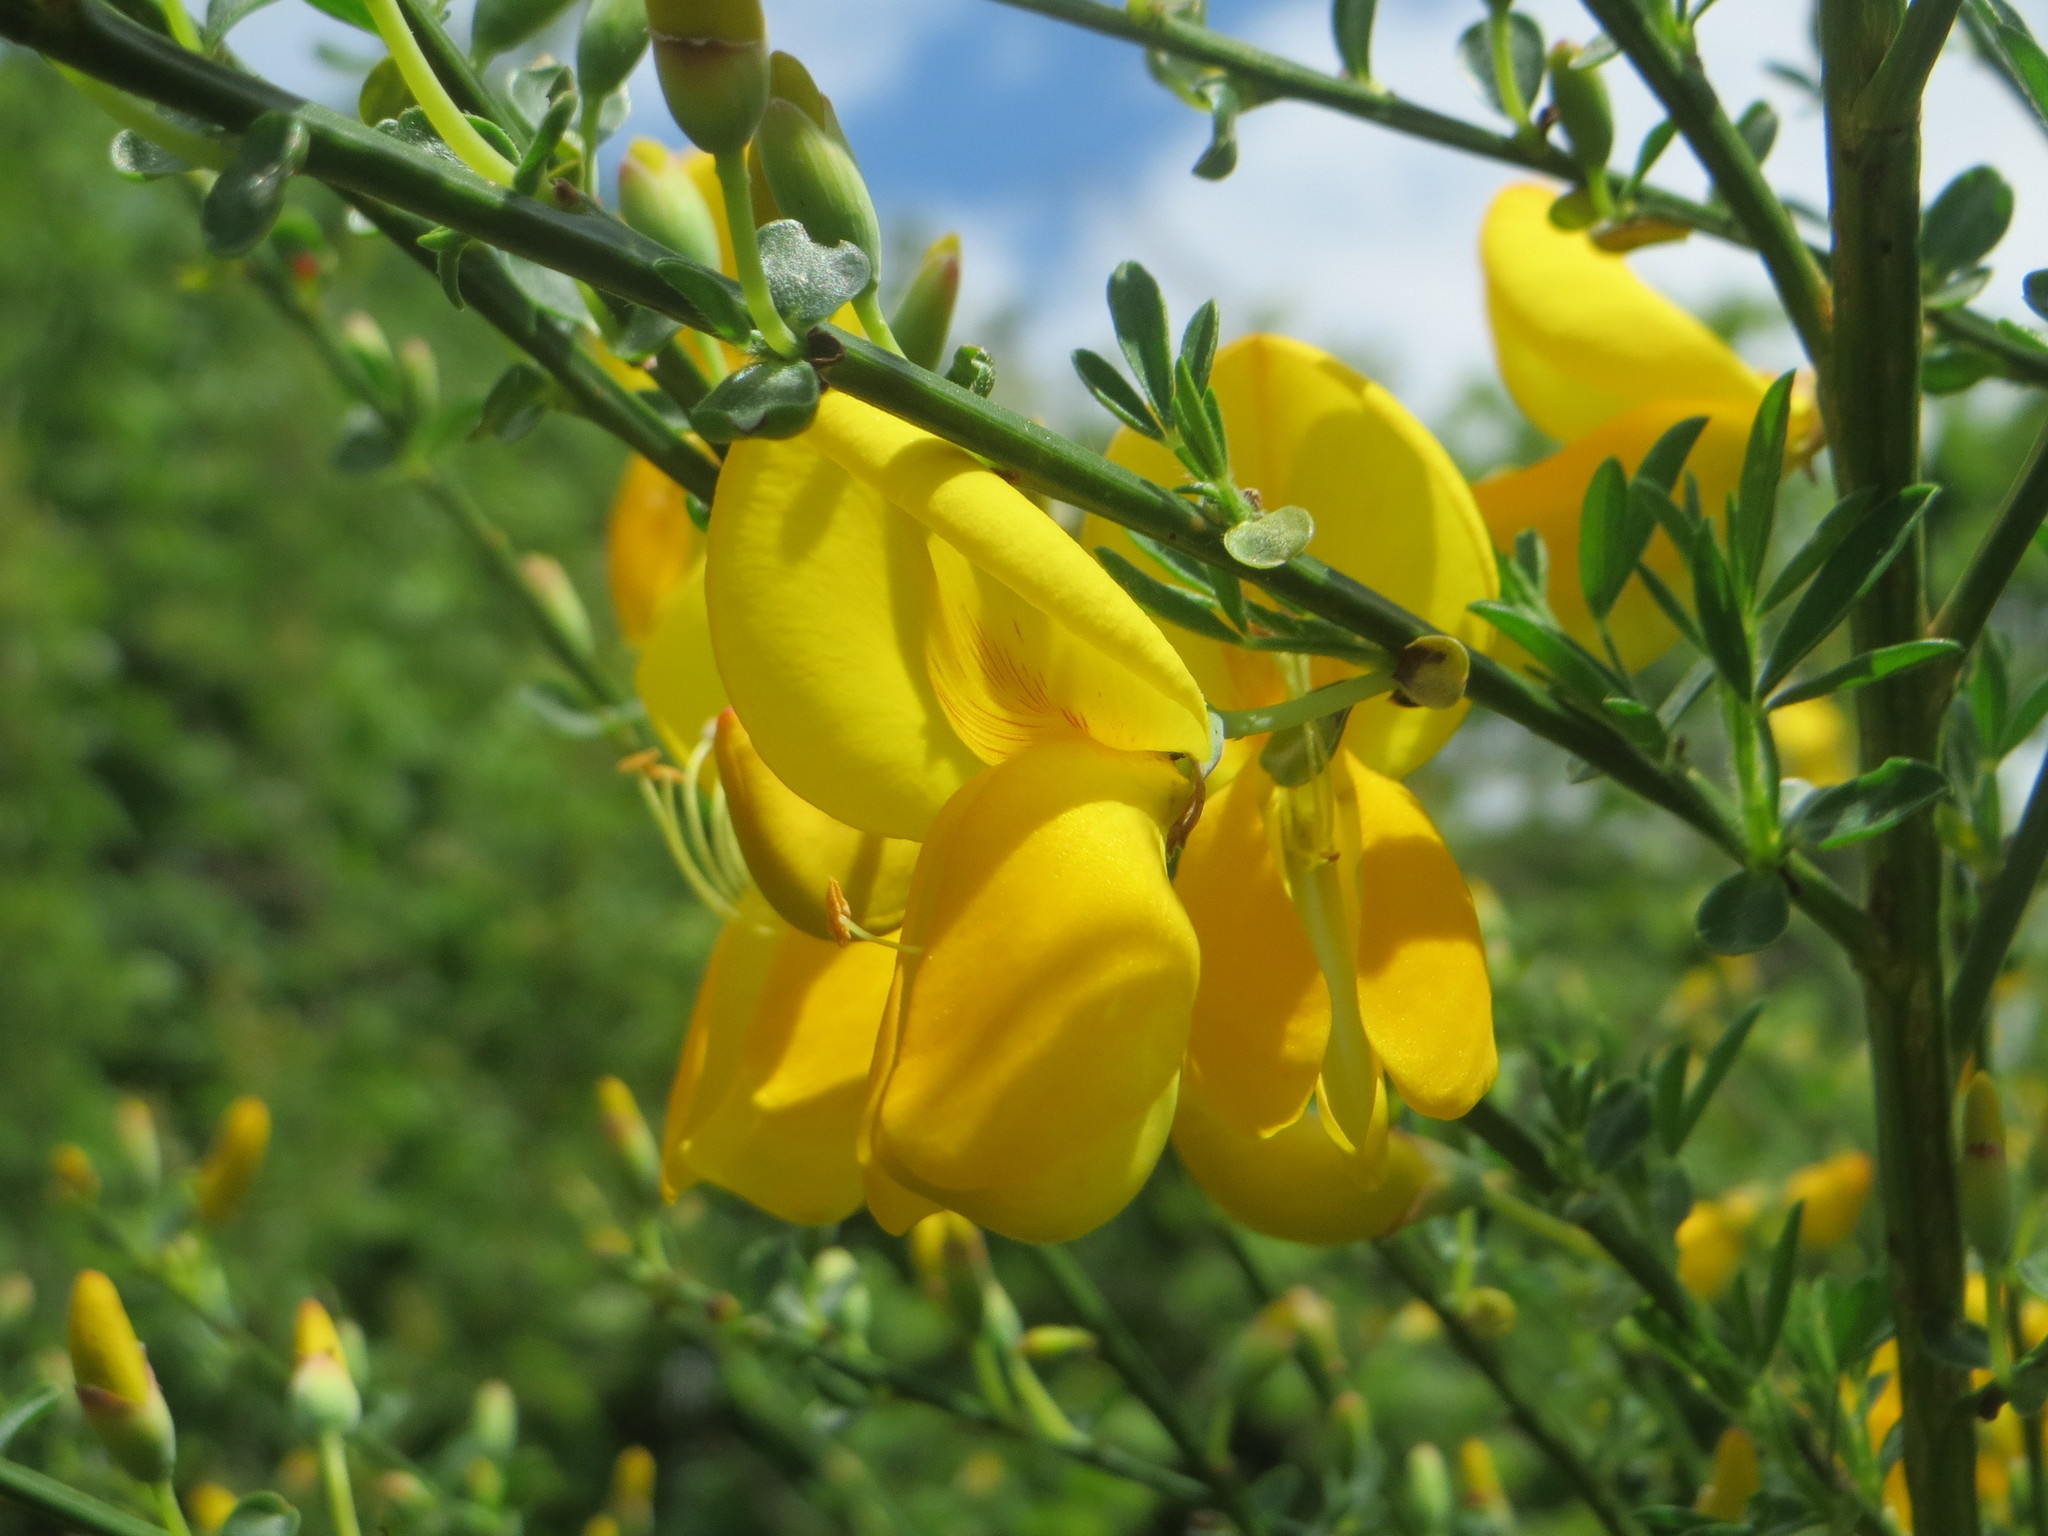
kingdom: Plantae
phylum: Tracheophyta
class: Magnoliopsida
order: Fabales
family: Fabaceae
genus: Cytisus
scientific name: Cytisus scoparius
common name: Scotch broom
